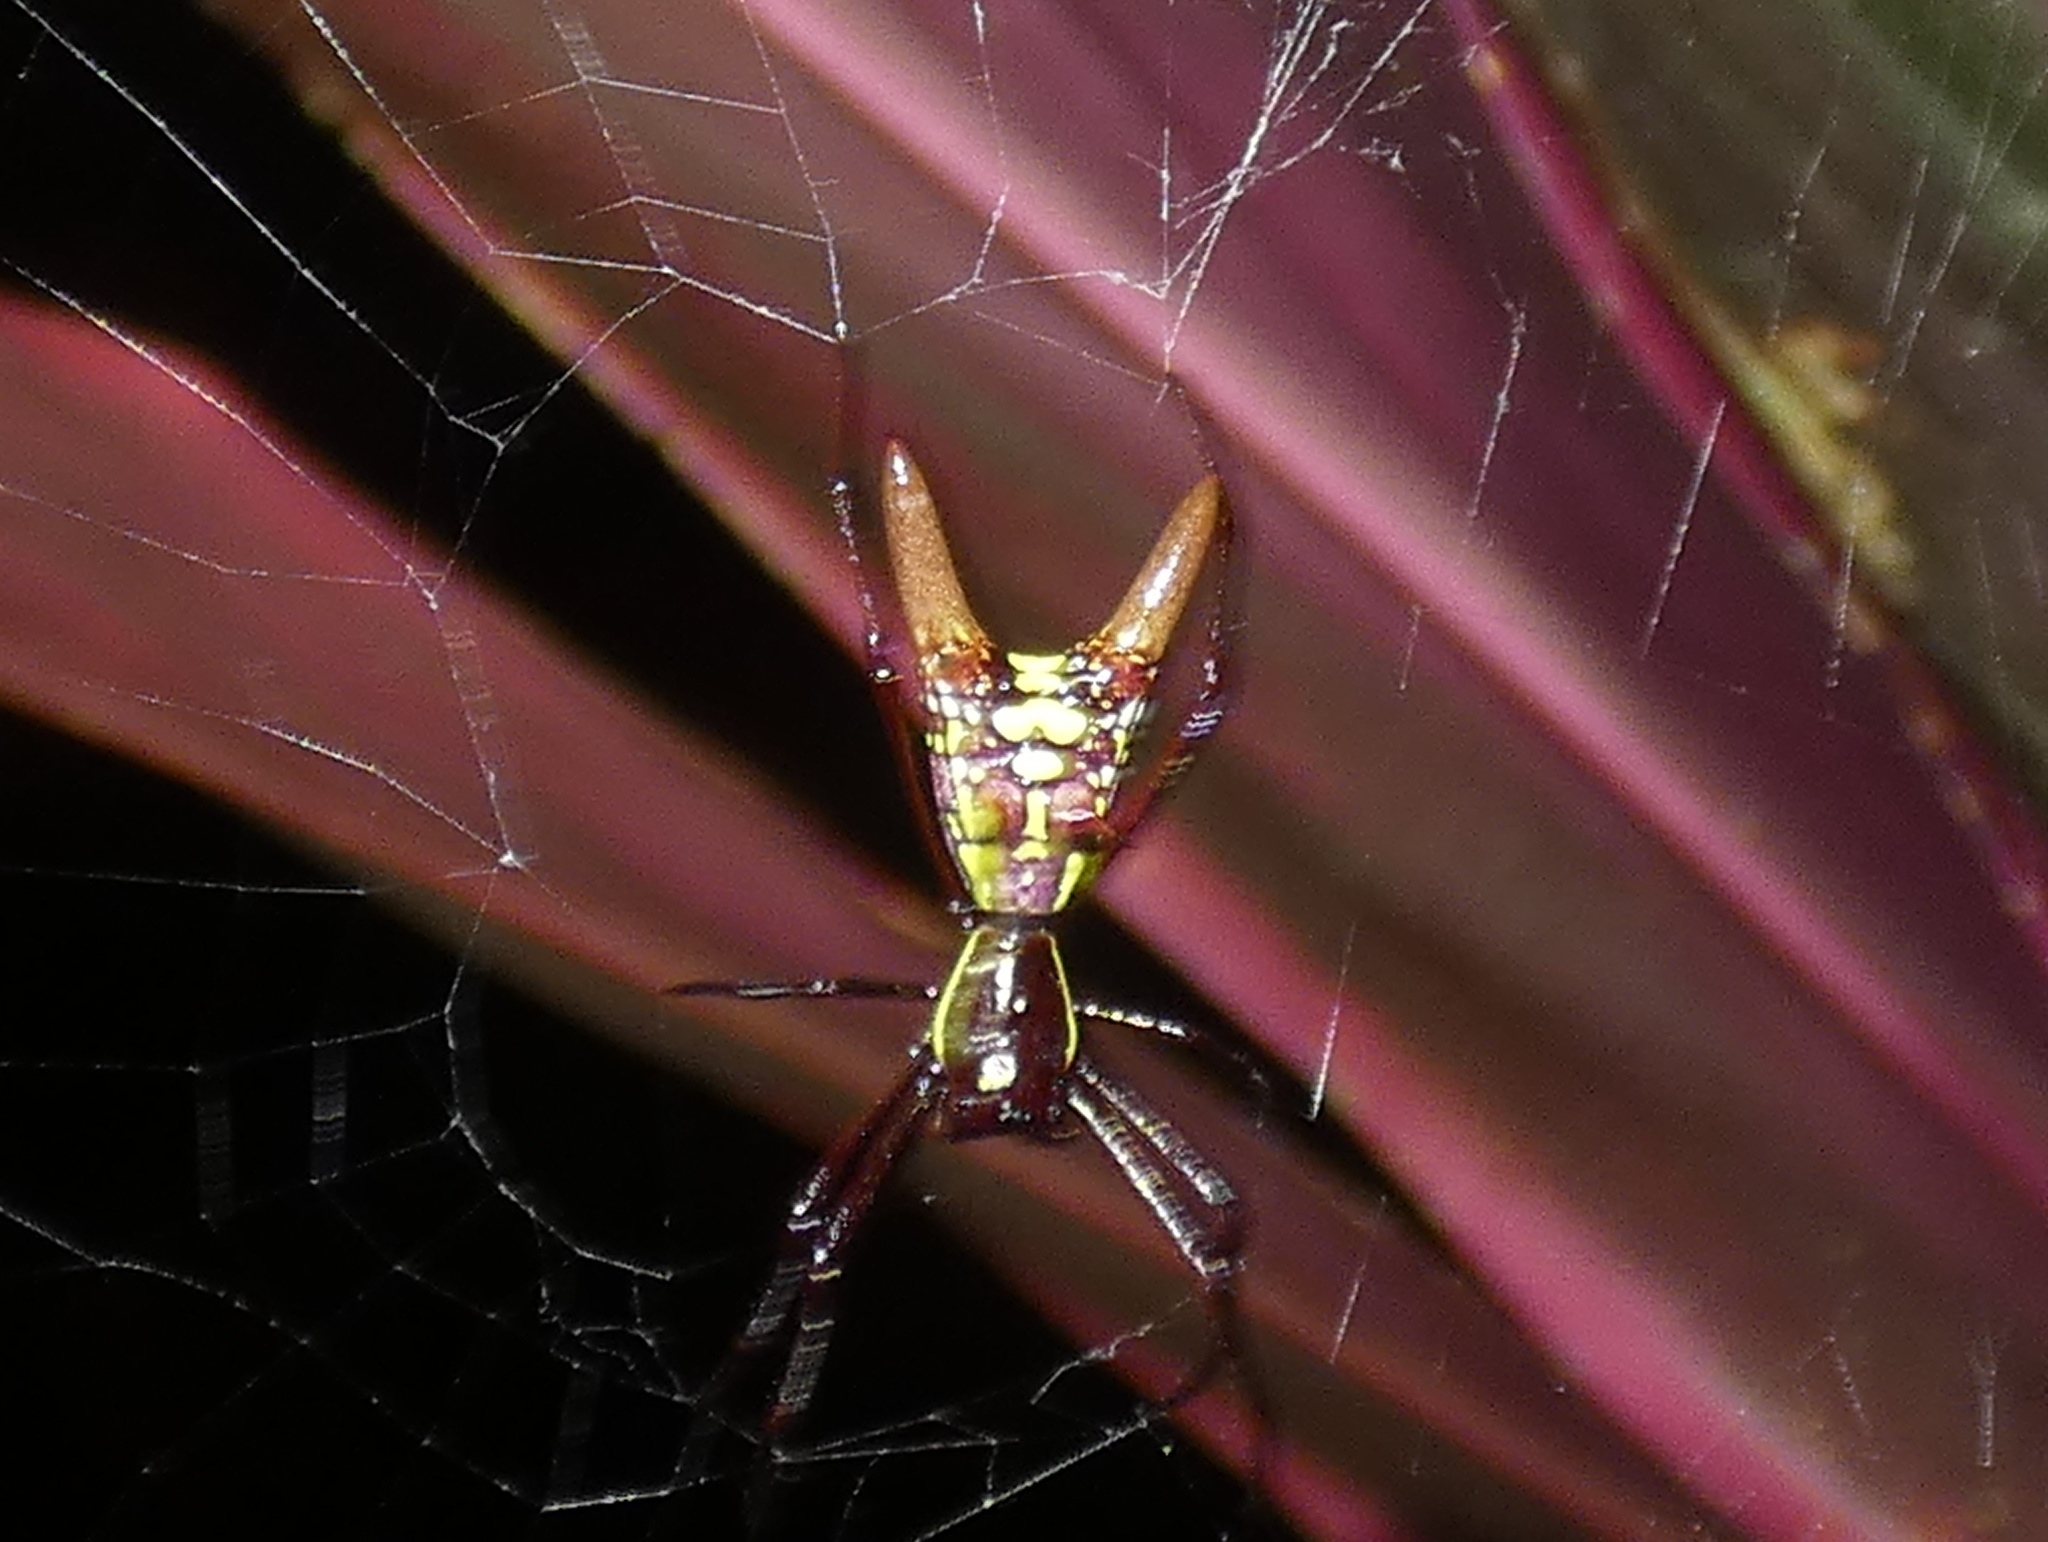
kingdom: Animalia
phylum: Arthropoda
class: Arachnida
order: Araneae
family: Araneidae
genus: Micrathena
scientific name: Micrathena sexspinosa
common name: Orb weavers
